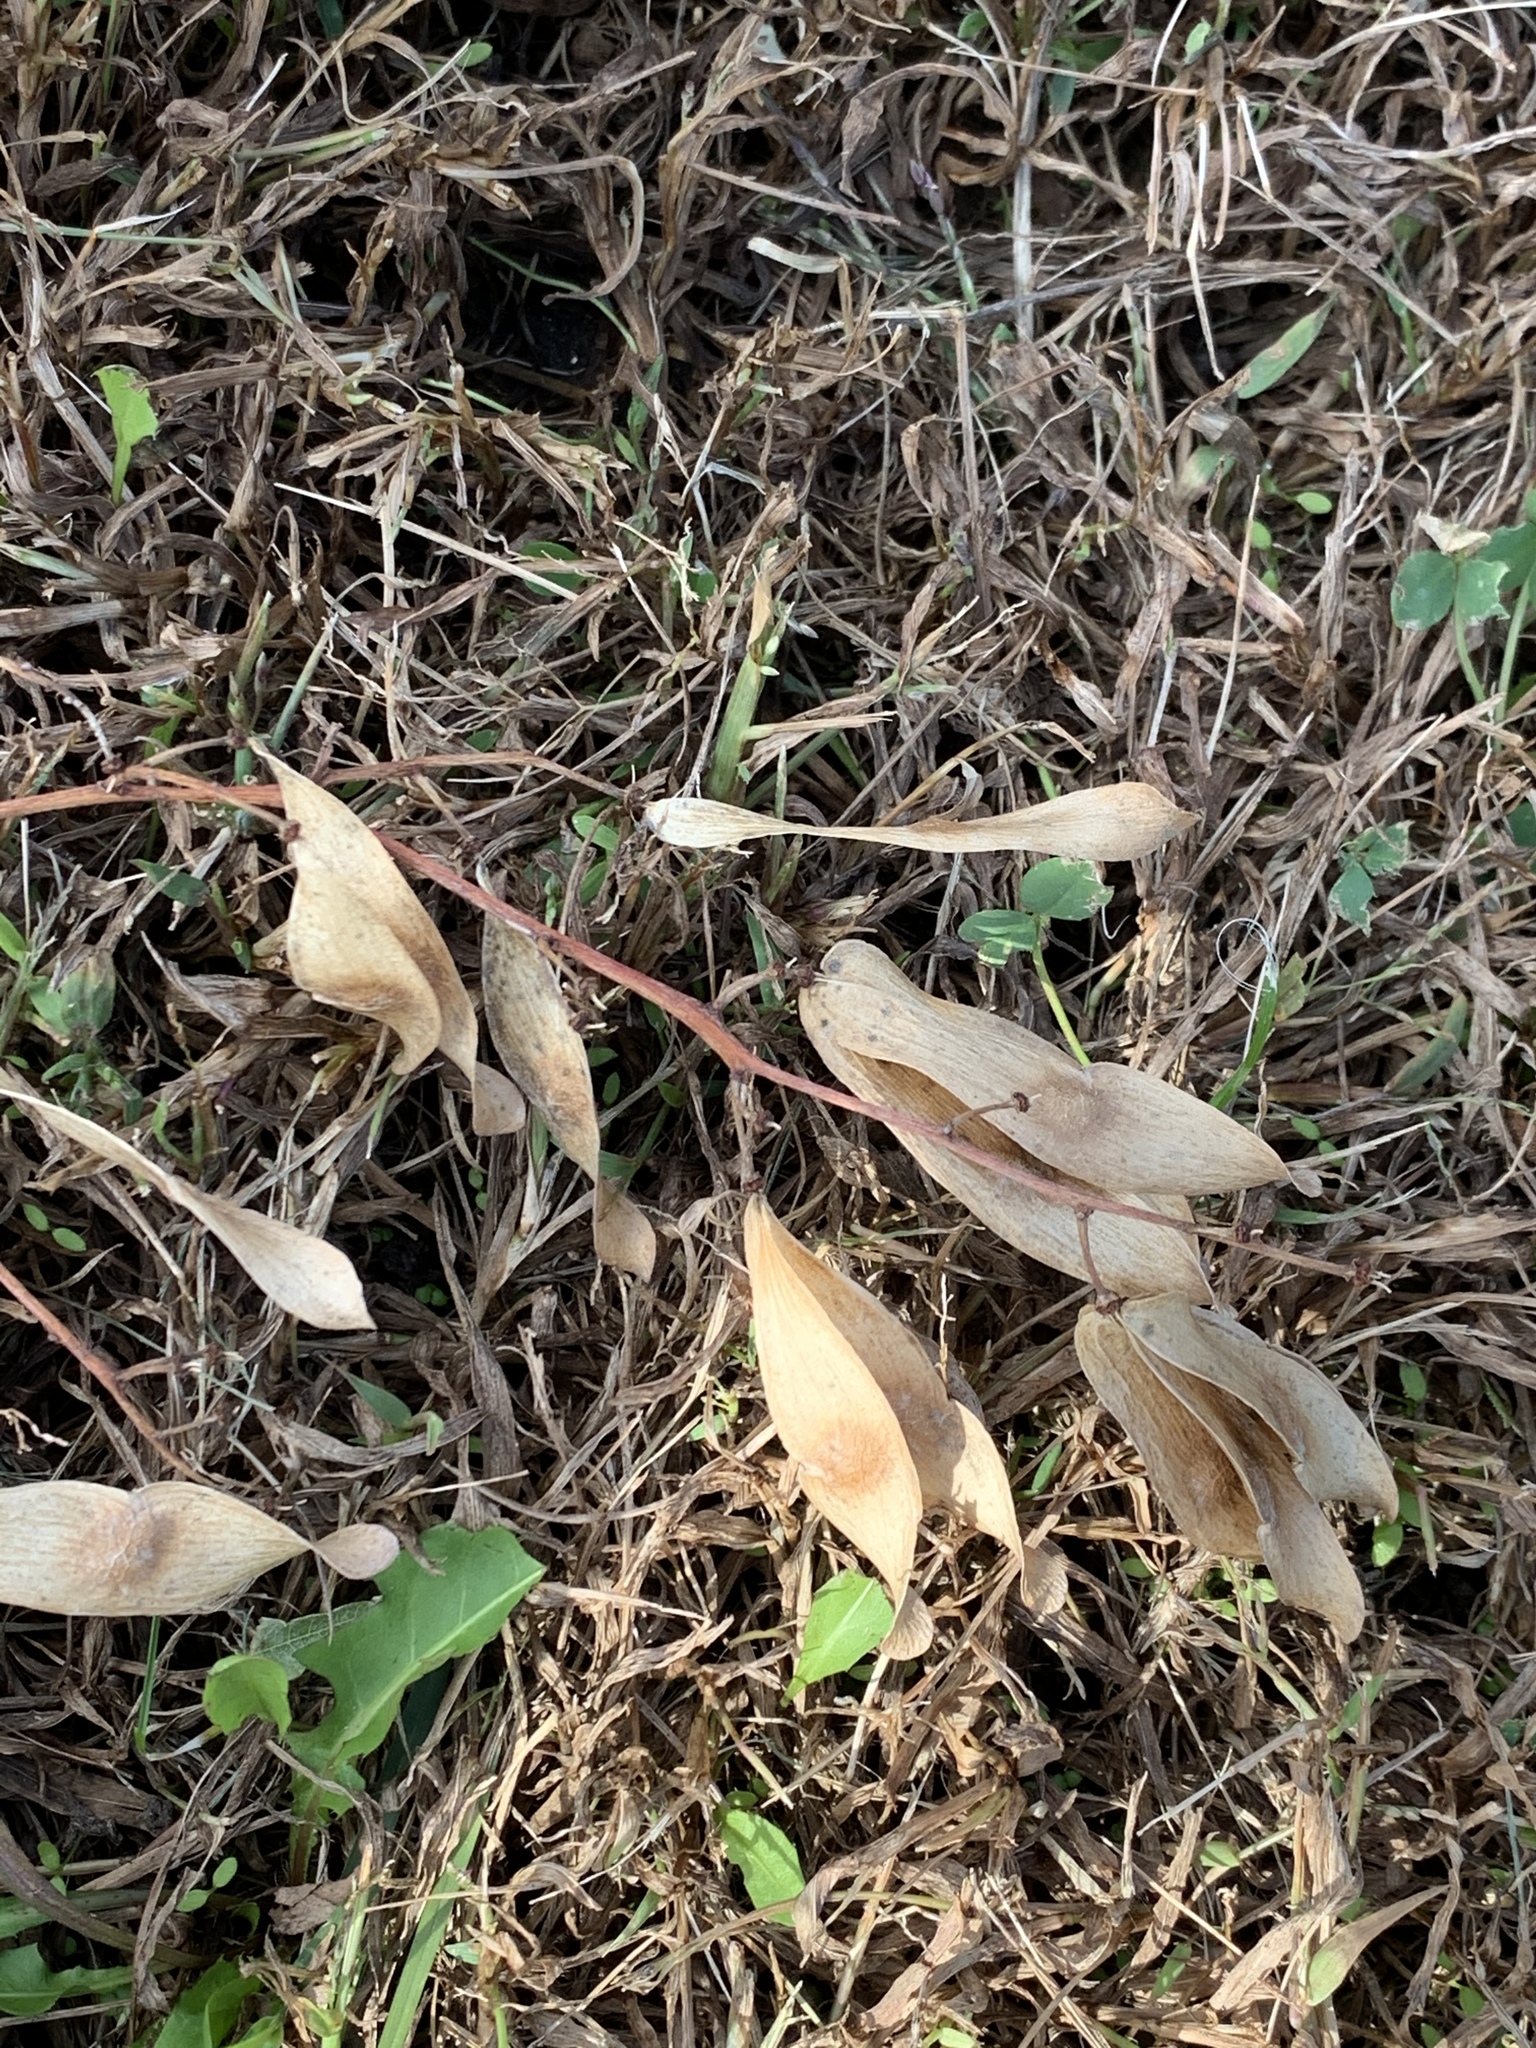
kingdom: Plantae
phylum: Tracheophyta
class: Magnoliopsida
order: Sapindales
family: Simaroubaceae
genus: Ailanthus
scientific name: Ailanthus altissima
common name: Tree-of-heaven
